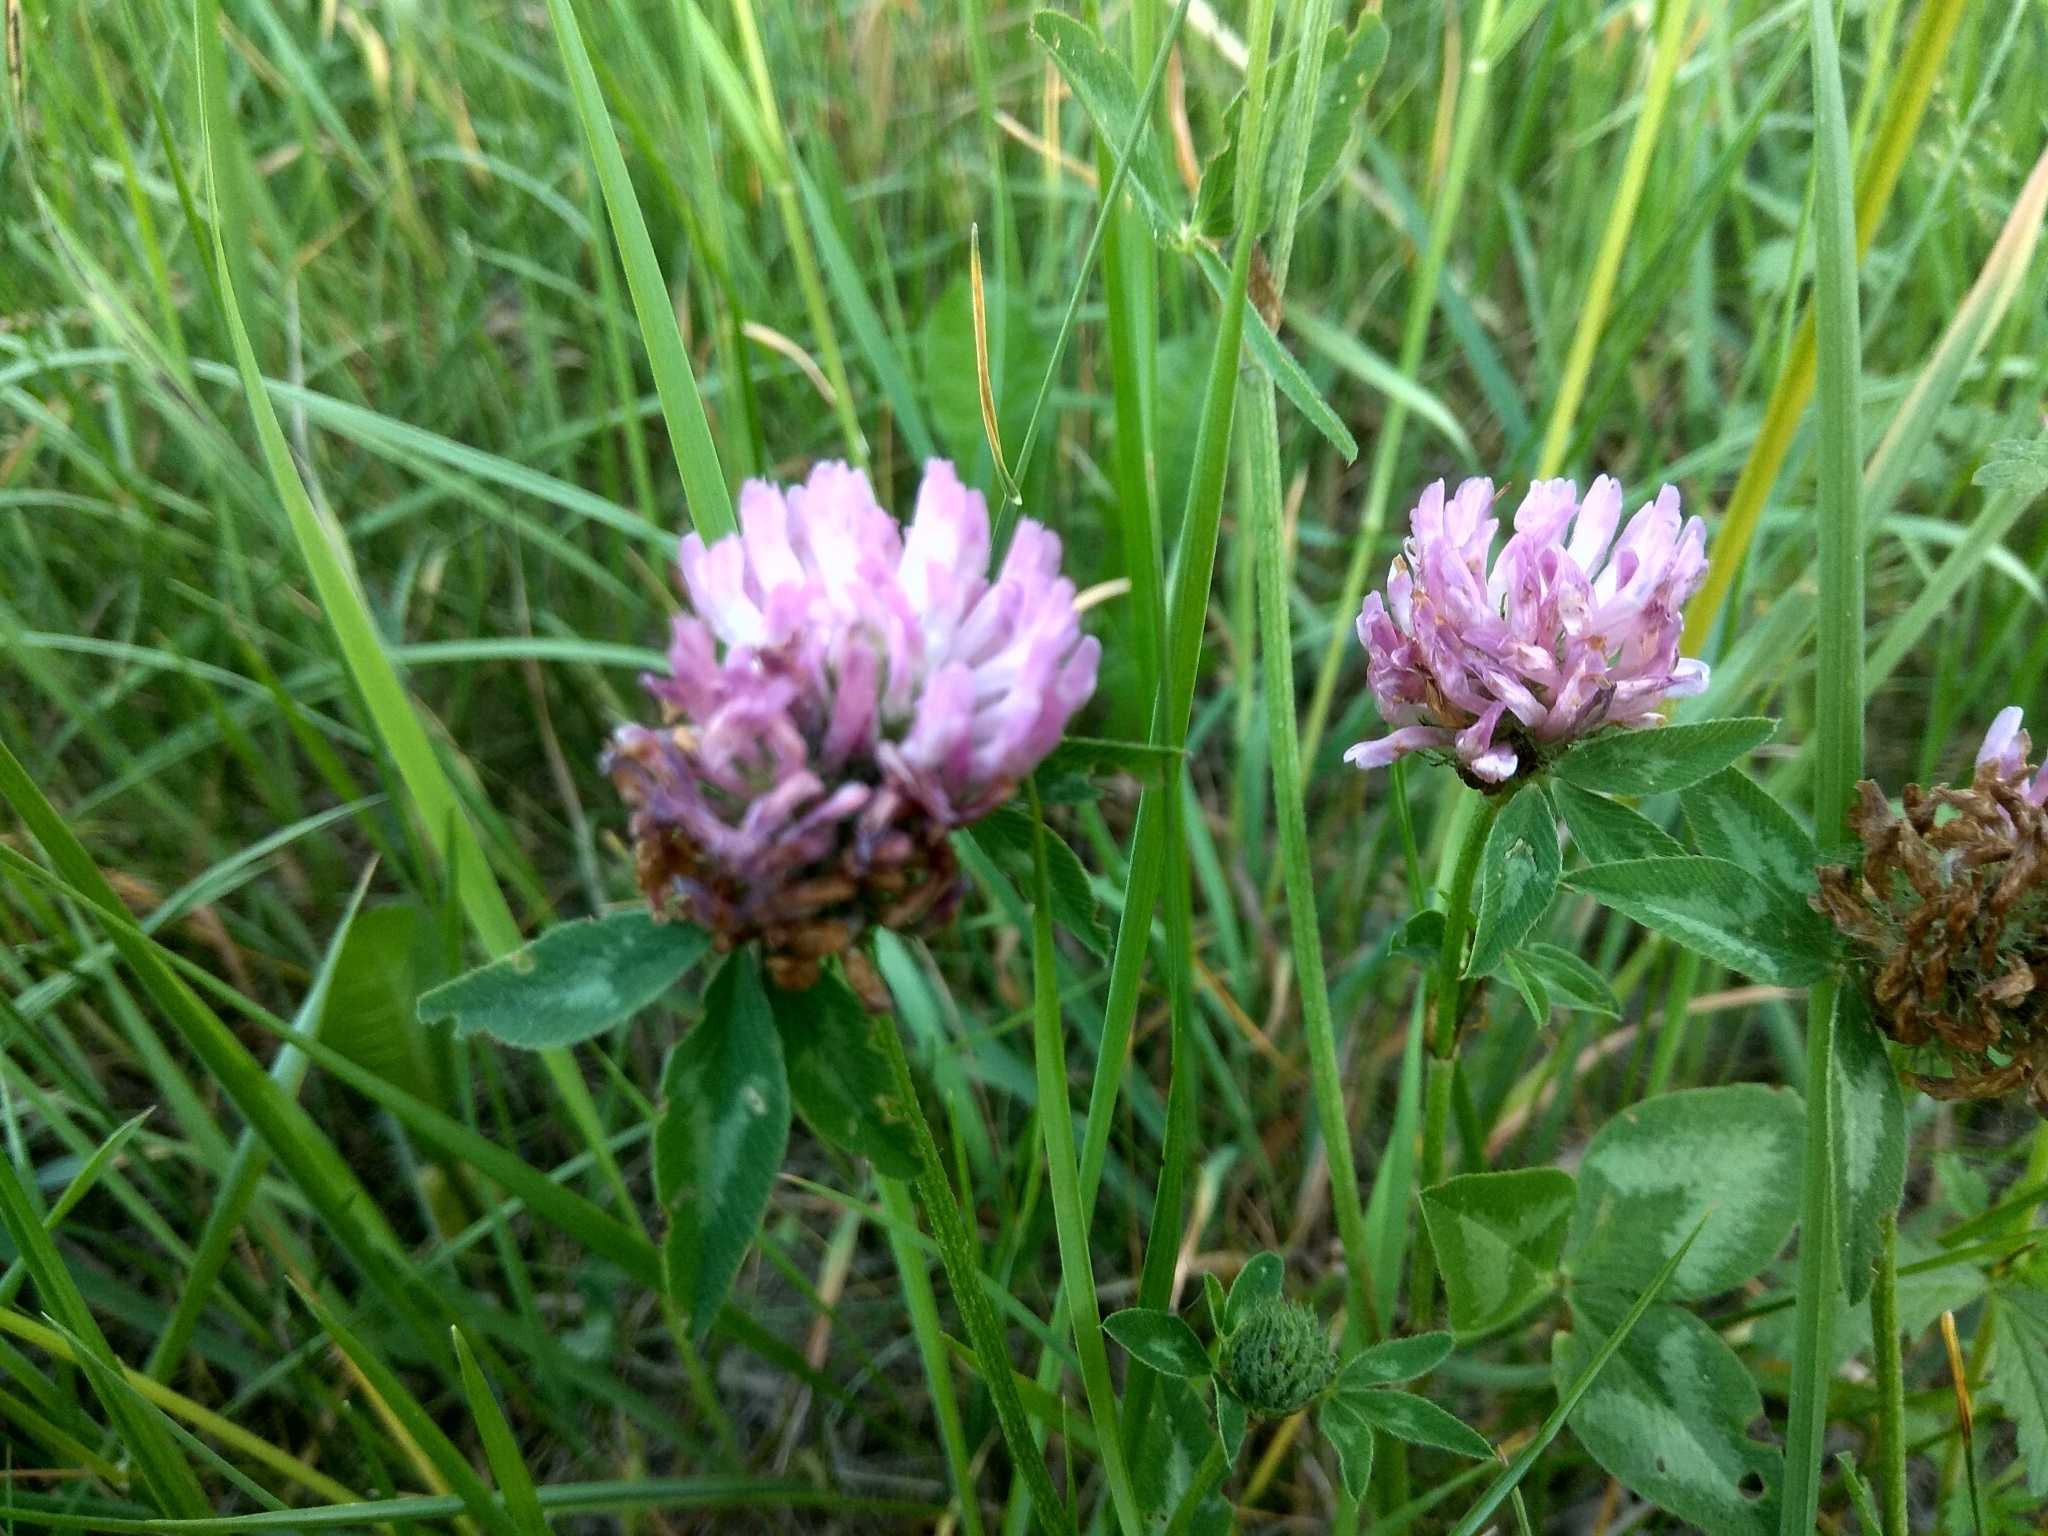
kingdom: Plantae
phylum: Tracheophyta
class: Magnoliopsida
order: Fabales
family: Fabaceae
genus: Trifolium
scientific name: Trifolium pratense
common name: Red clover
